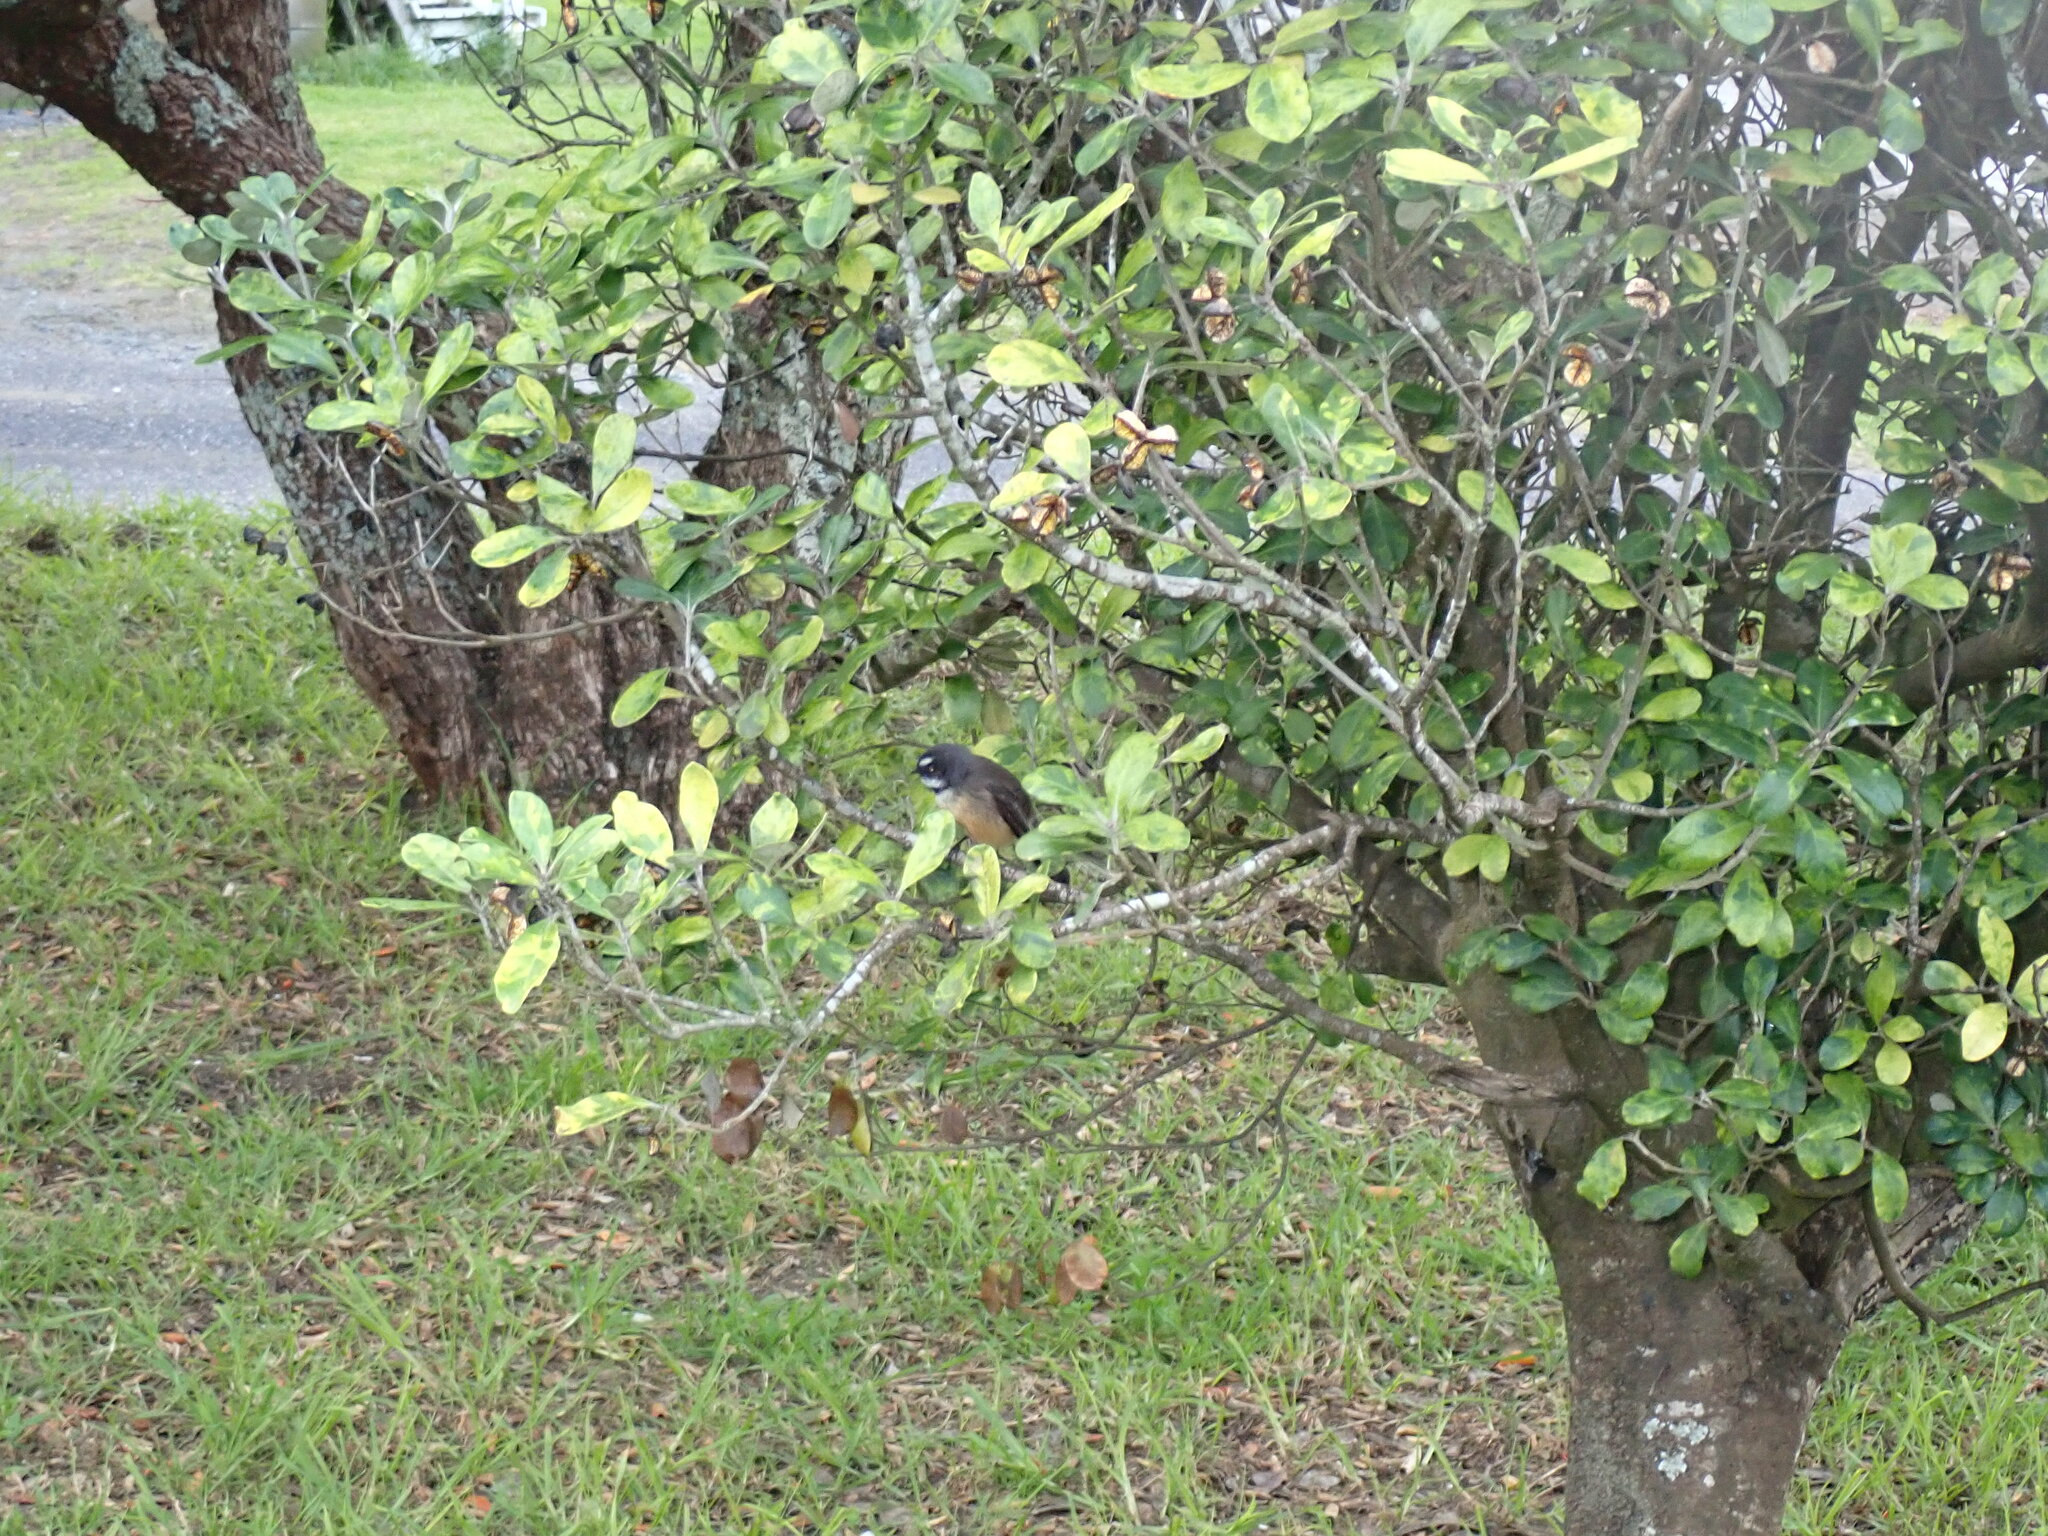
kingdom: Animalia
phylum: Chordata
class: Aves
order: Passeriformes
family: Rhipiduridae
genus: Rhipidura
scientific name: Rhipidura fuliginosa
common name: New zealand fantail
